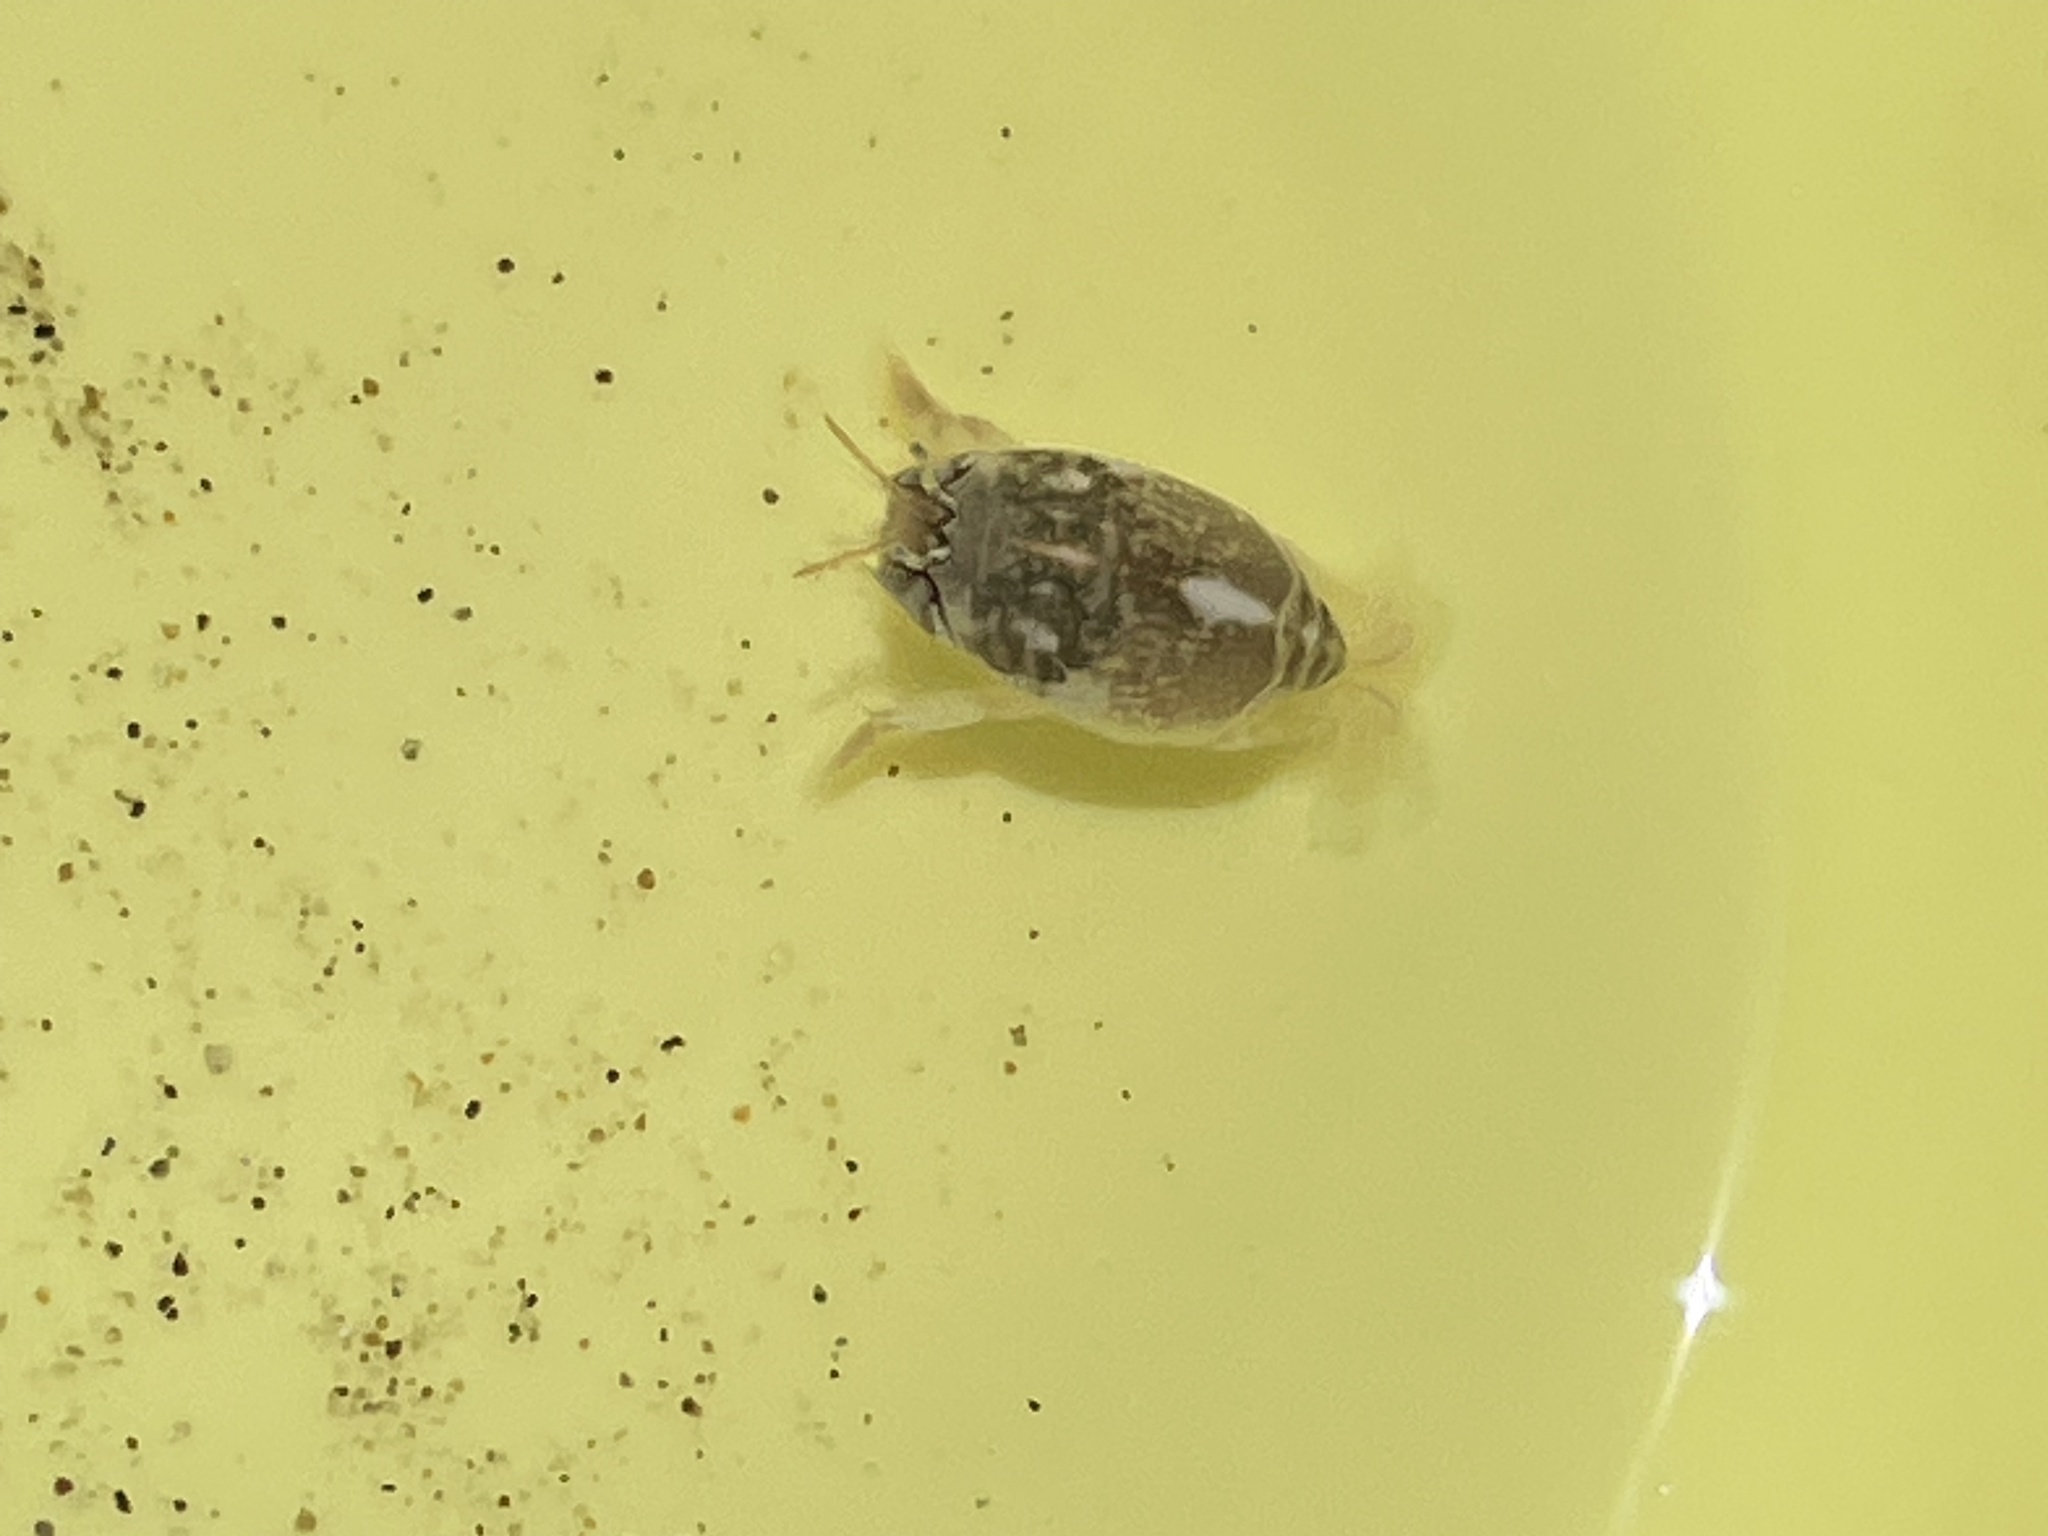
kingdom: Animalia
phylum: Arthropoda
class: Malacostraca
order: Decapoda
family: Hippidae
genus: Emerita
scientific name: Emerita analoga
